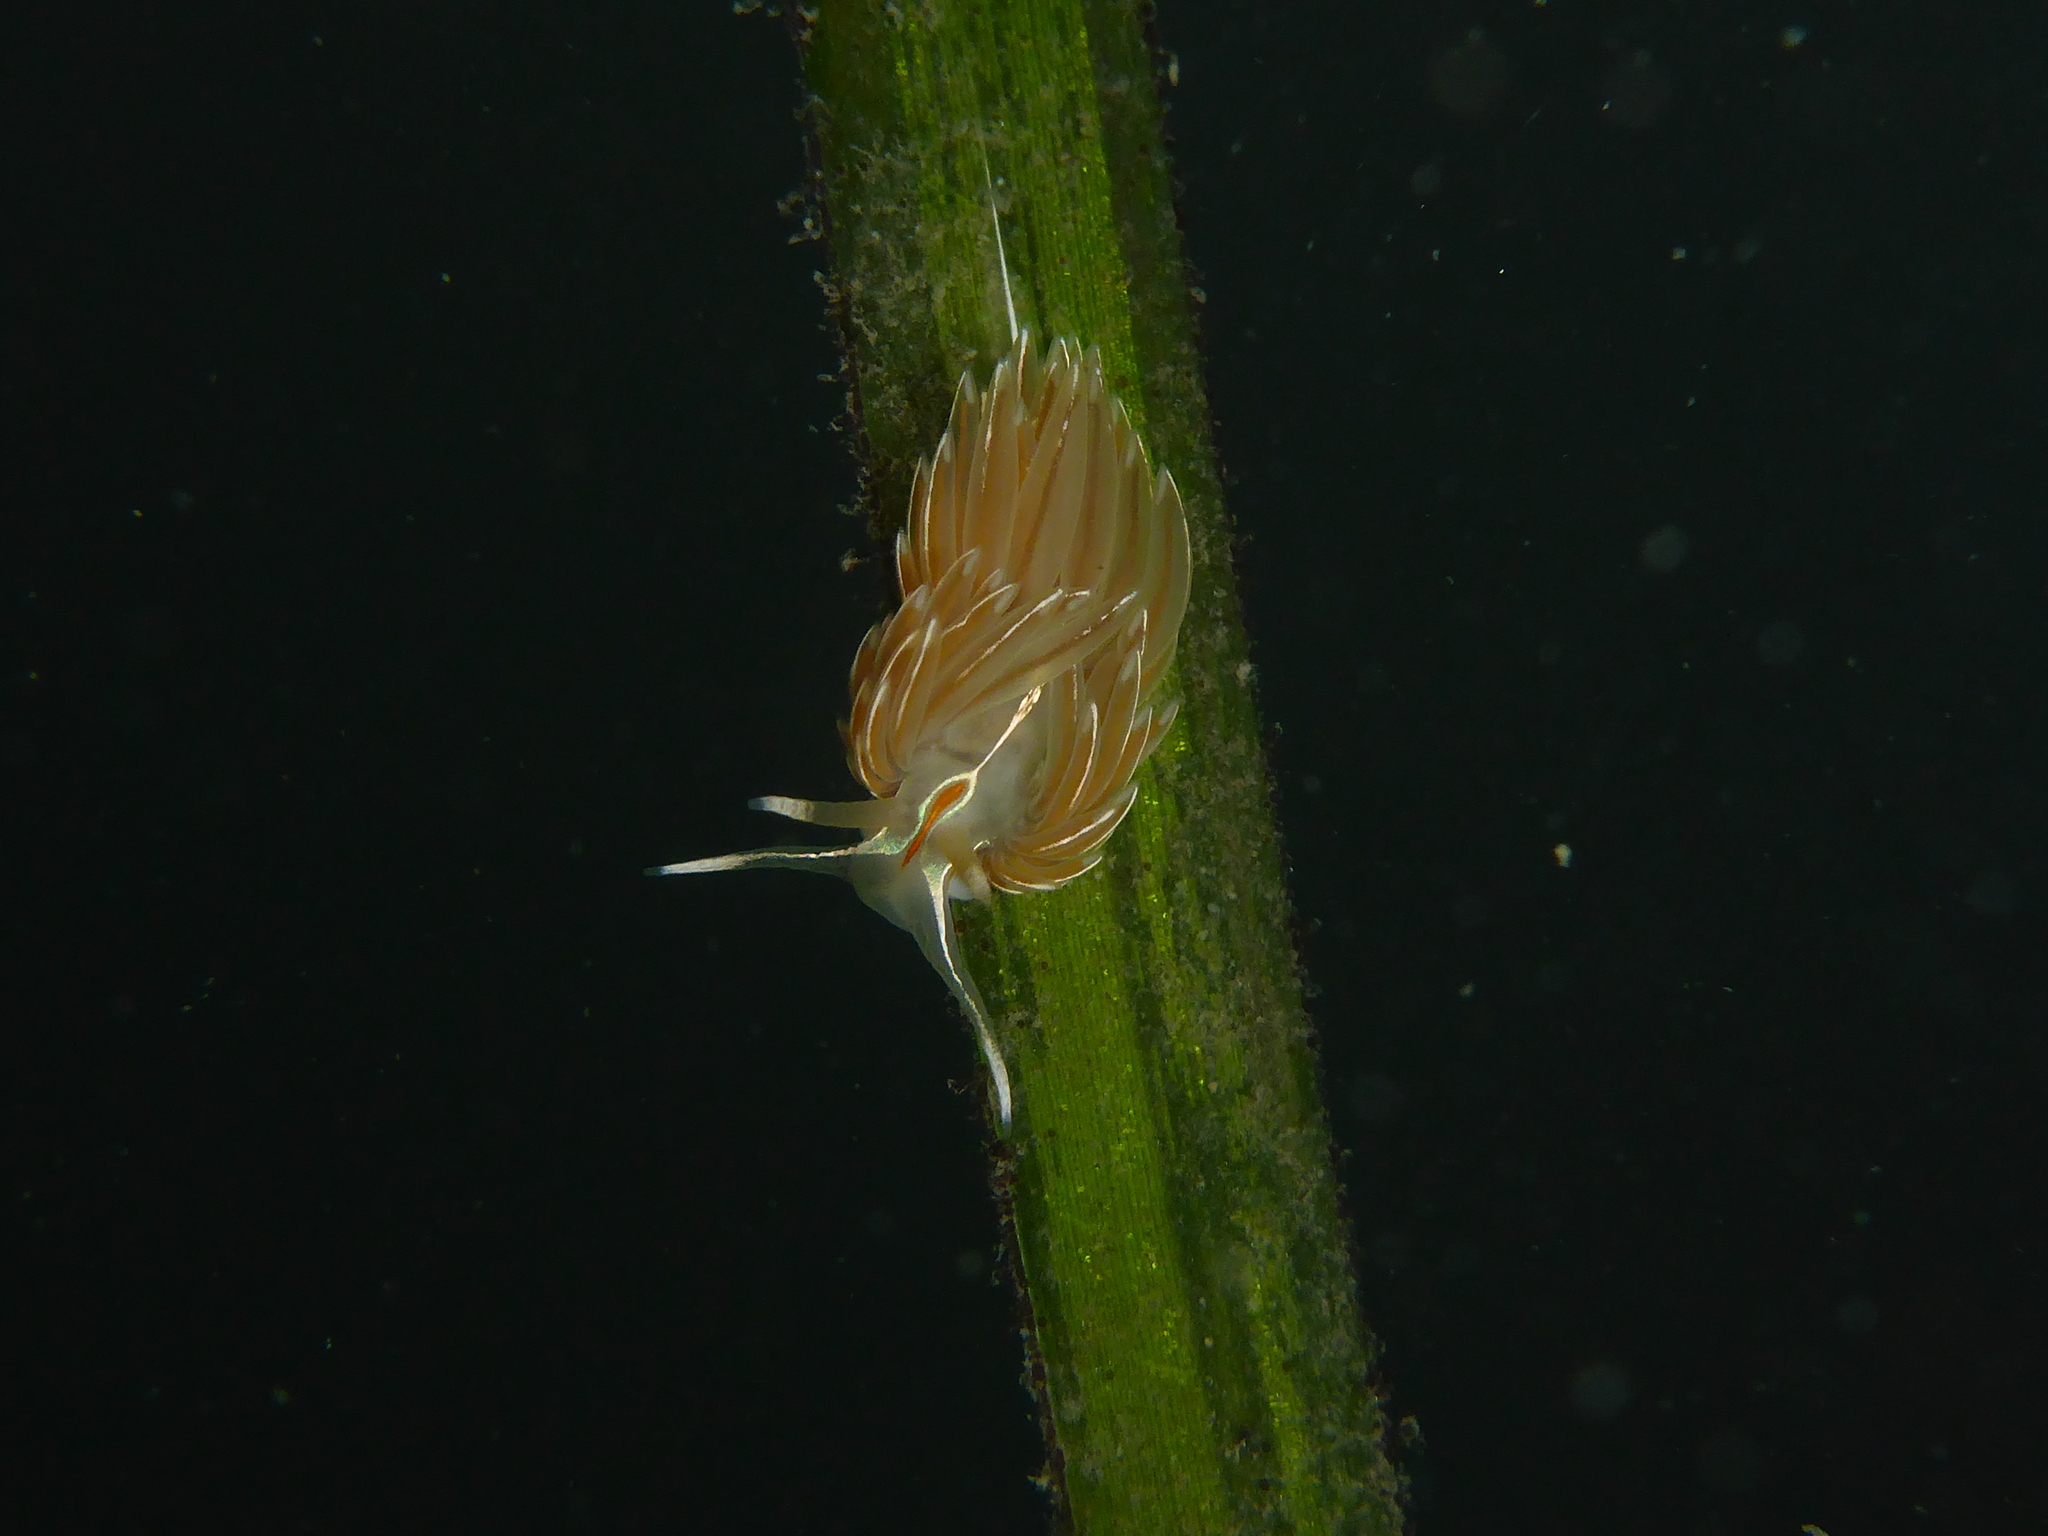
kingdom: Animalia
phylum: Mollusca
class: Gastropoda
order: Nudibranchia
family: Myrrhinidae
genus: Hermissenda
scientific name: Hermissenda crassicornis
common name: Hermissenda
